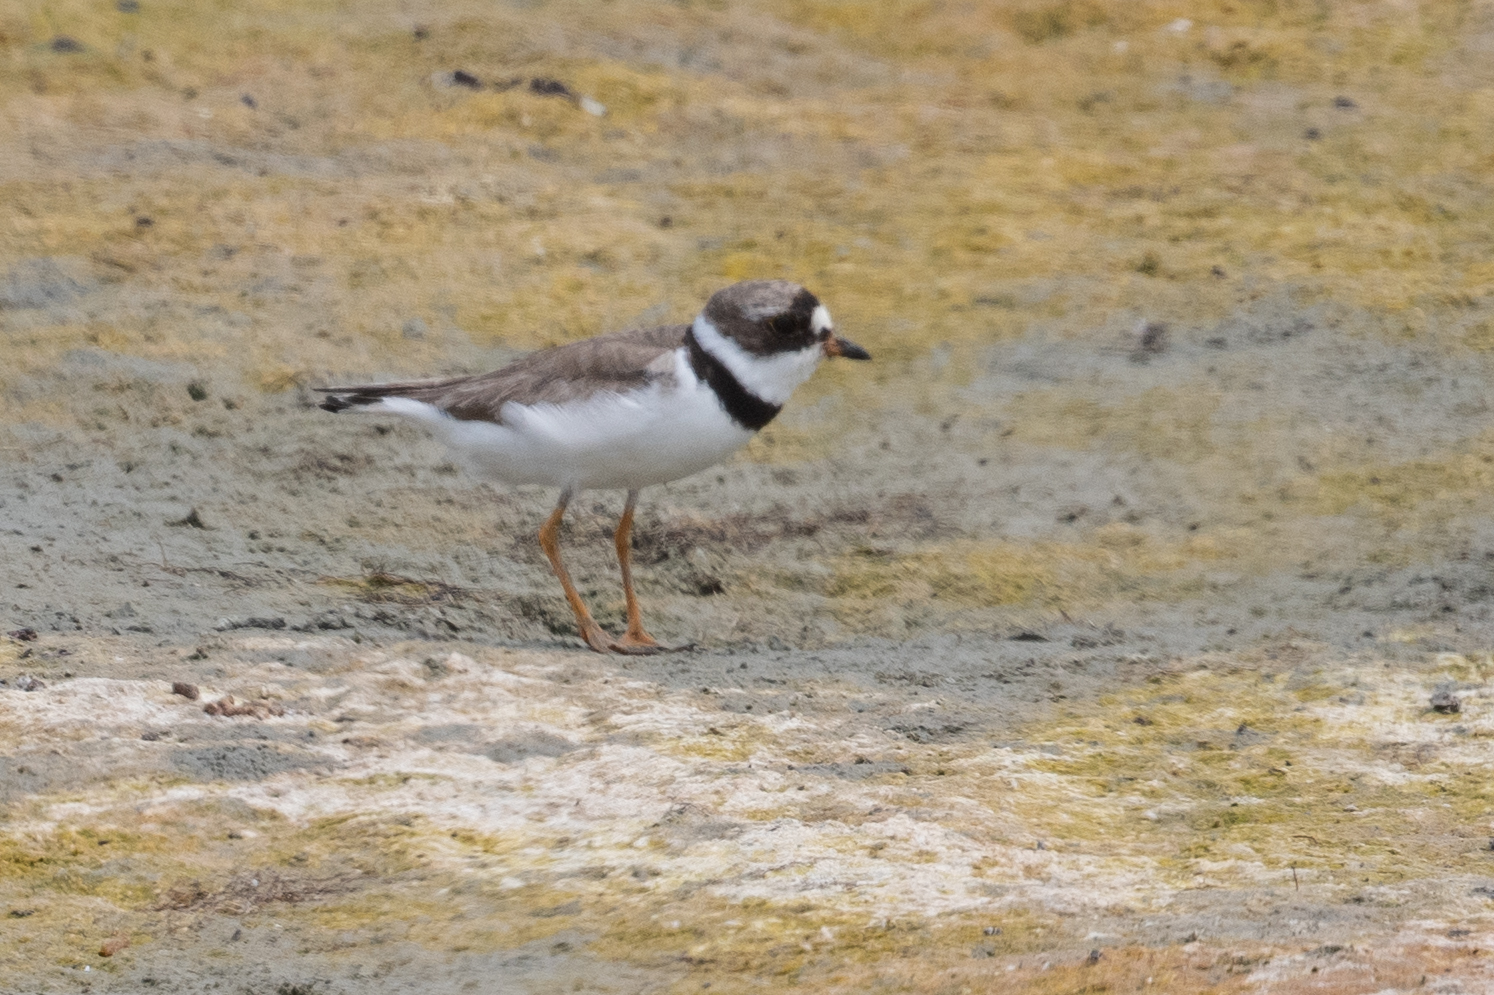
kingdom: Animalia
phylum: Chordata
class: Aves
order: Charadriiformes
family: Charadriidae
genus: Charadrius
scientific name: Charadrius semipalmatus
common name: Semipalmated plover
